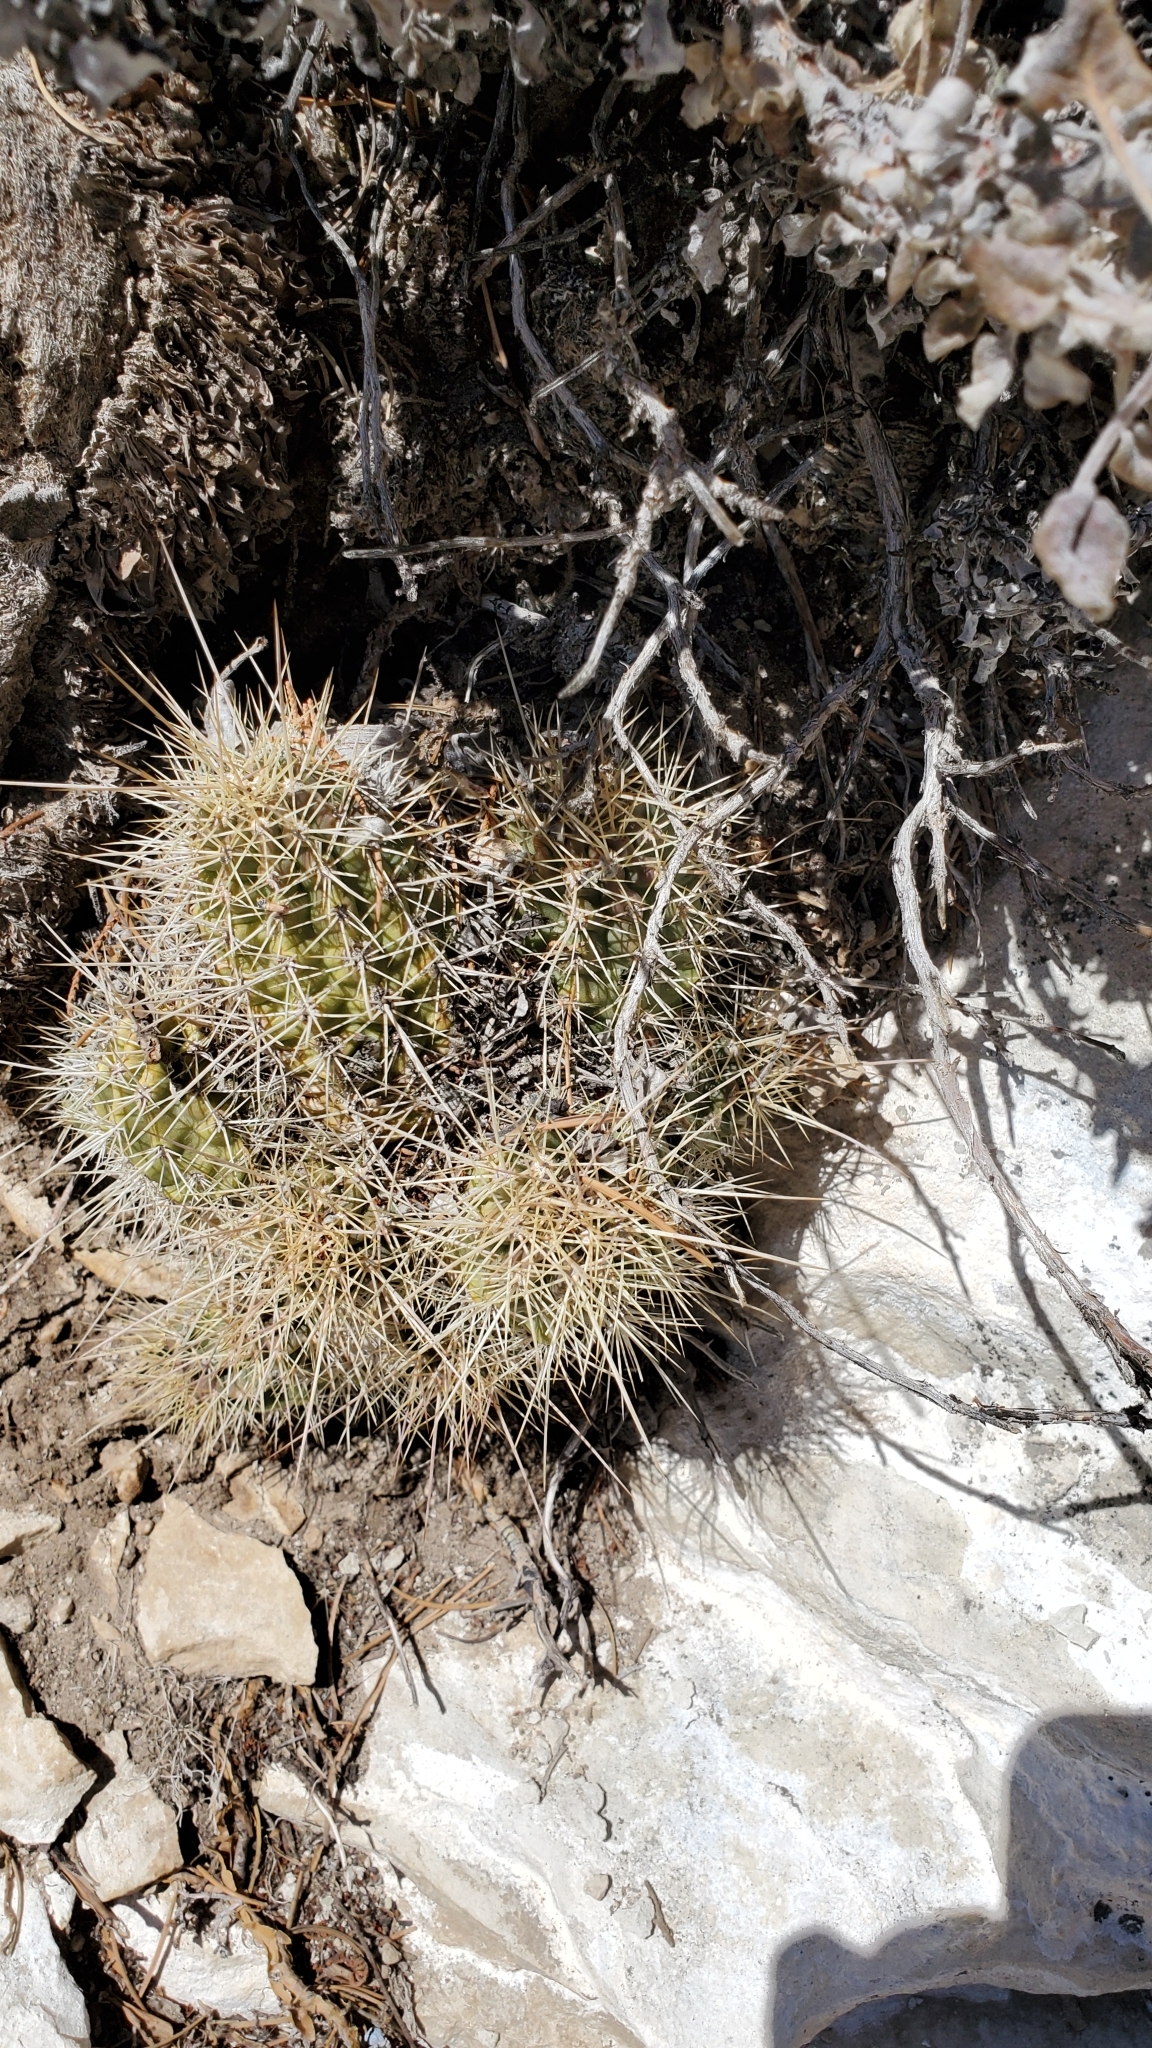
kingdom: Plantae
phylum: Tracheophyta
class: Magnoliopsida
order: Caryophyllales
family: Cactaceae
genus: Echinocereus
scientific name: Echinocereus bakeri
